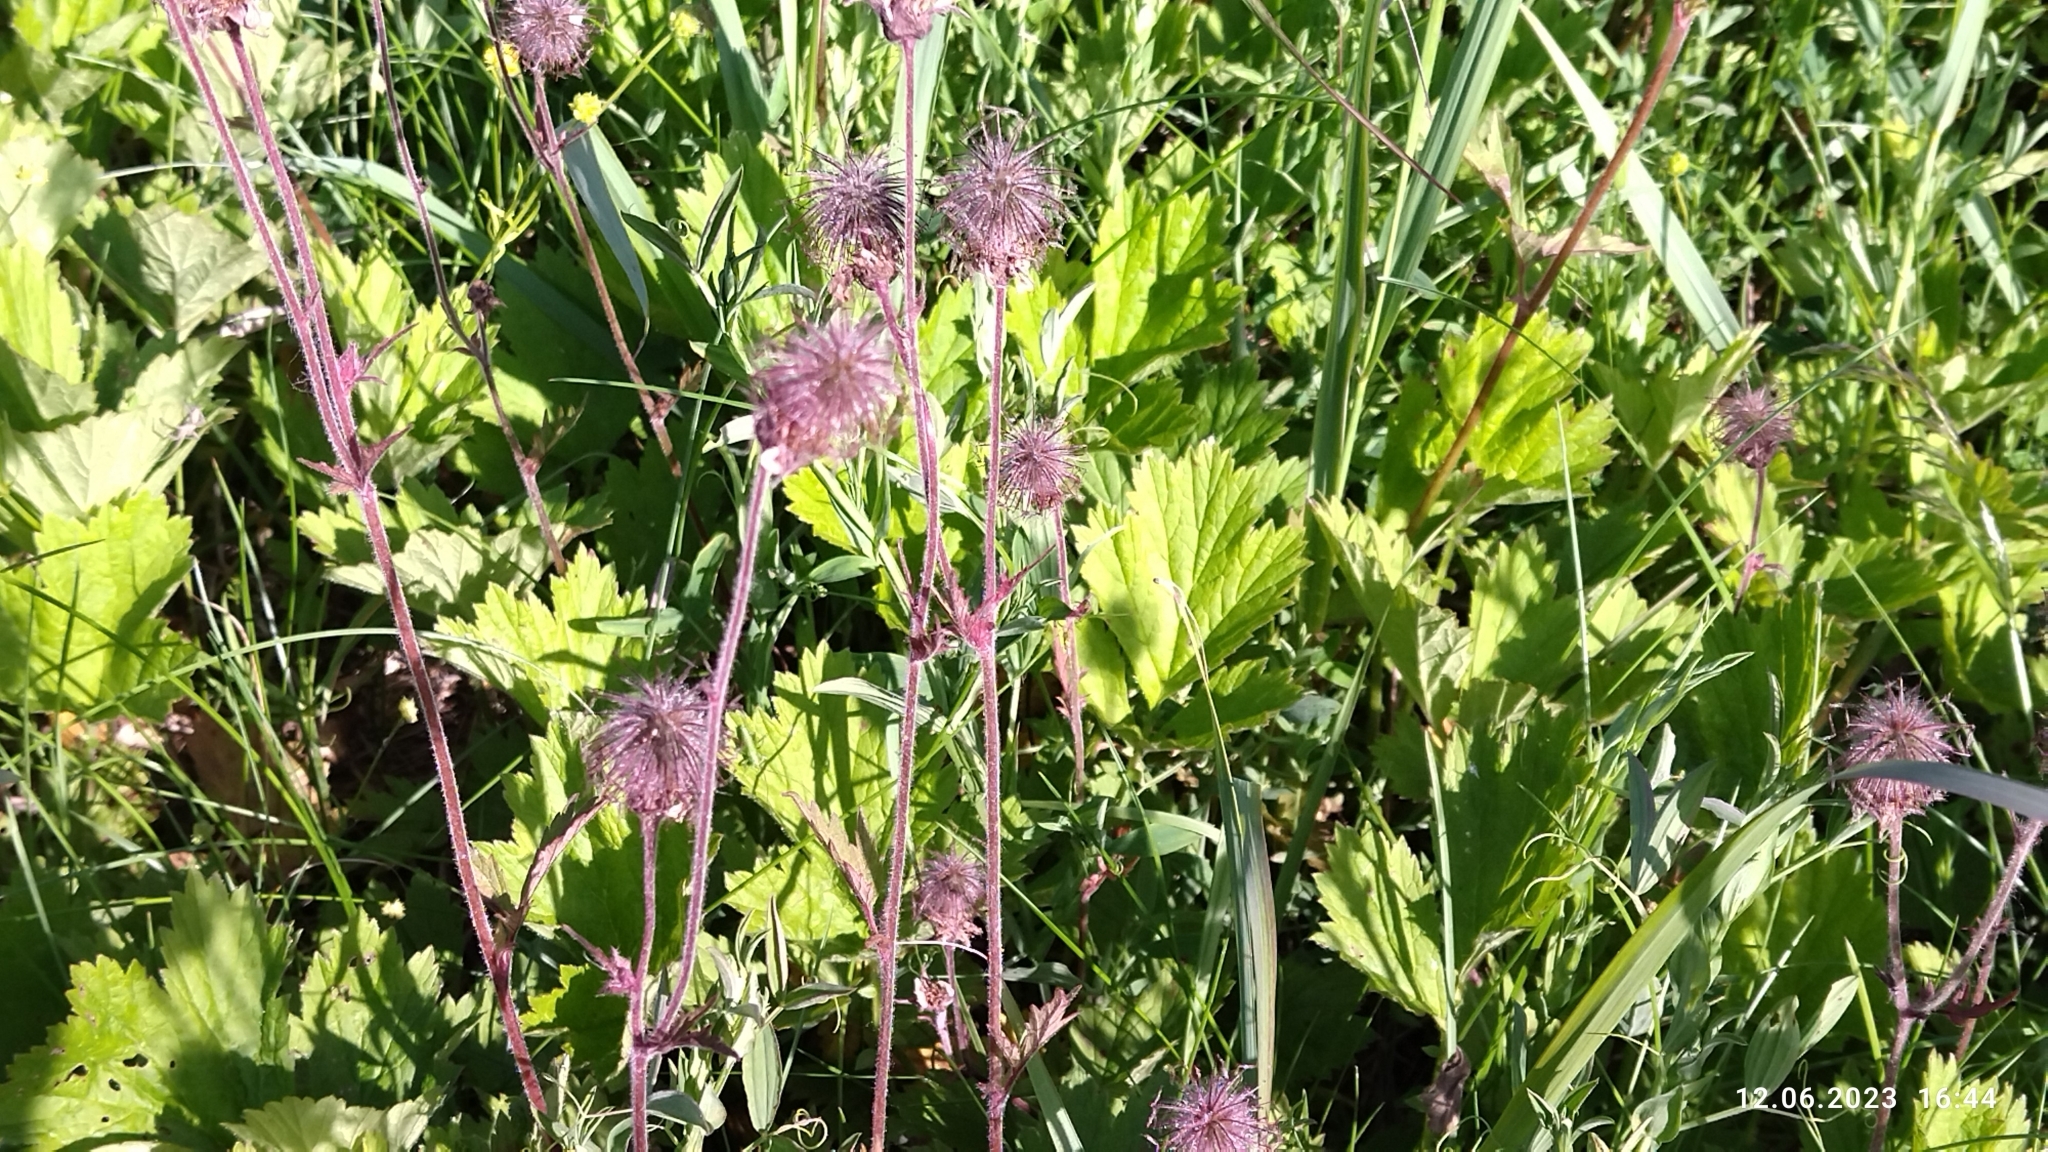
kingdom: Plantae
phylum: Tracheophyta
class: Magnoliopsida
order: Rosales
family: Rosaceae
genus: Geum
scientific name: Geum rivale
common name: Water avens
